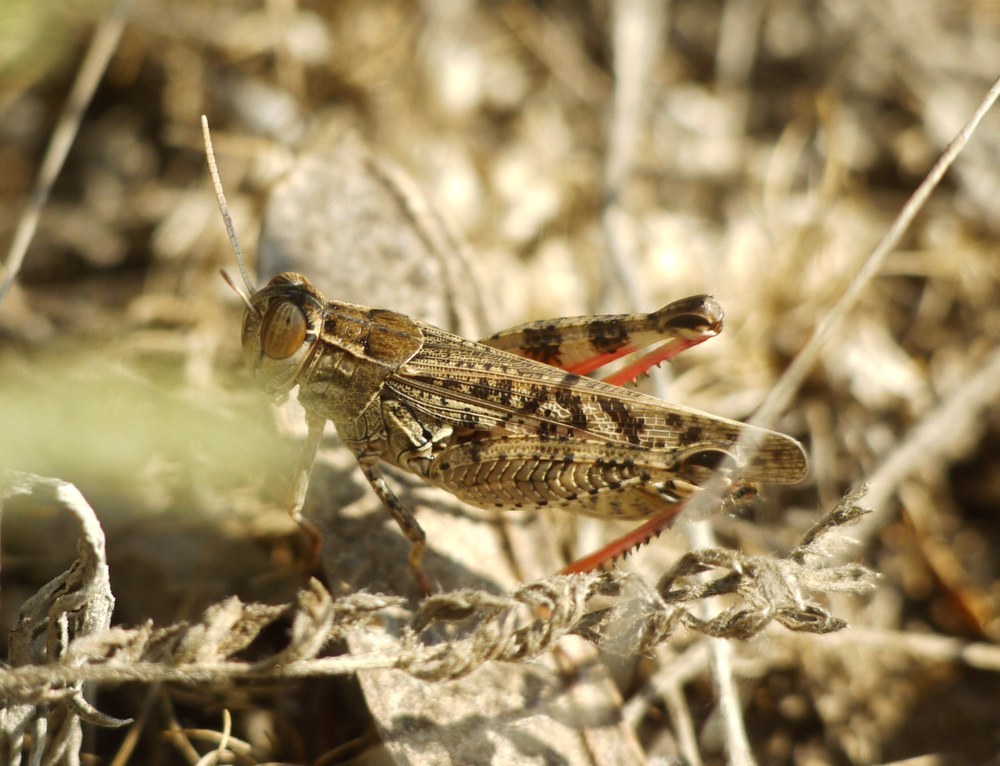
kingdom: Animalia
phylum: Arthropoda
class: Insecta
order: Orthoptera
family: Acrididae
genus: Calliptamus
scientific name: Calliptamus italicus
